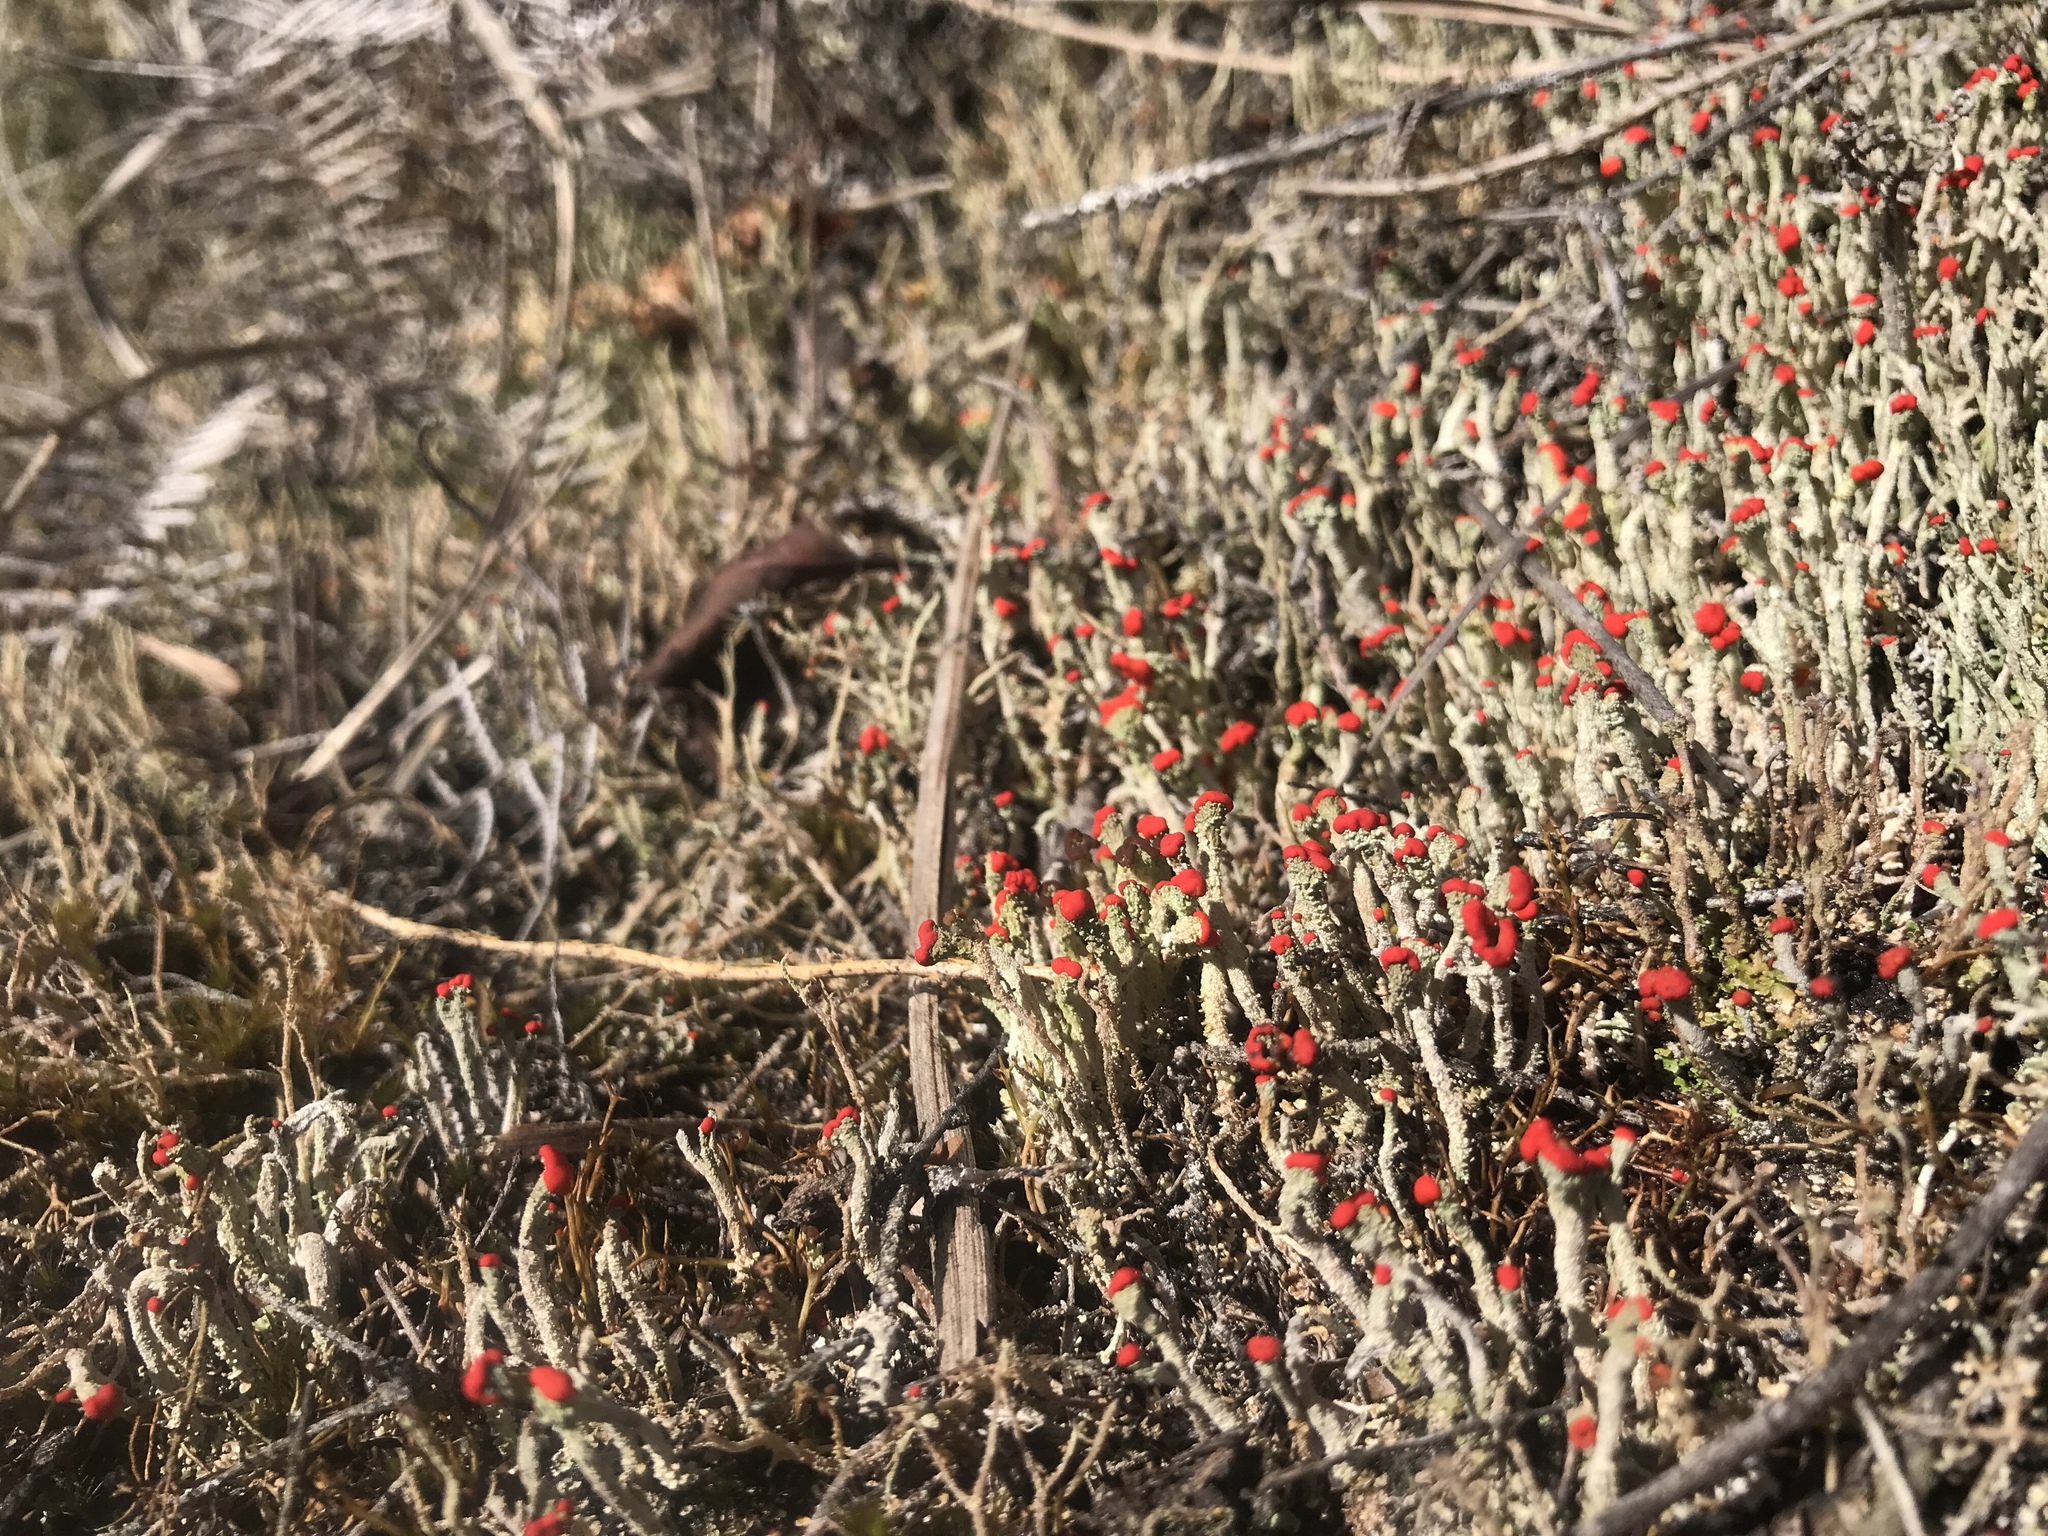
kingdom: Fungi
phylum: Ascomycota
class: Lecanoromycetes
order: Lecanorales
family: Cladoniaceae
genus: Cladonia
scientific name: Cladonia floerkeana
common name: Gritty british soldiers lichen
